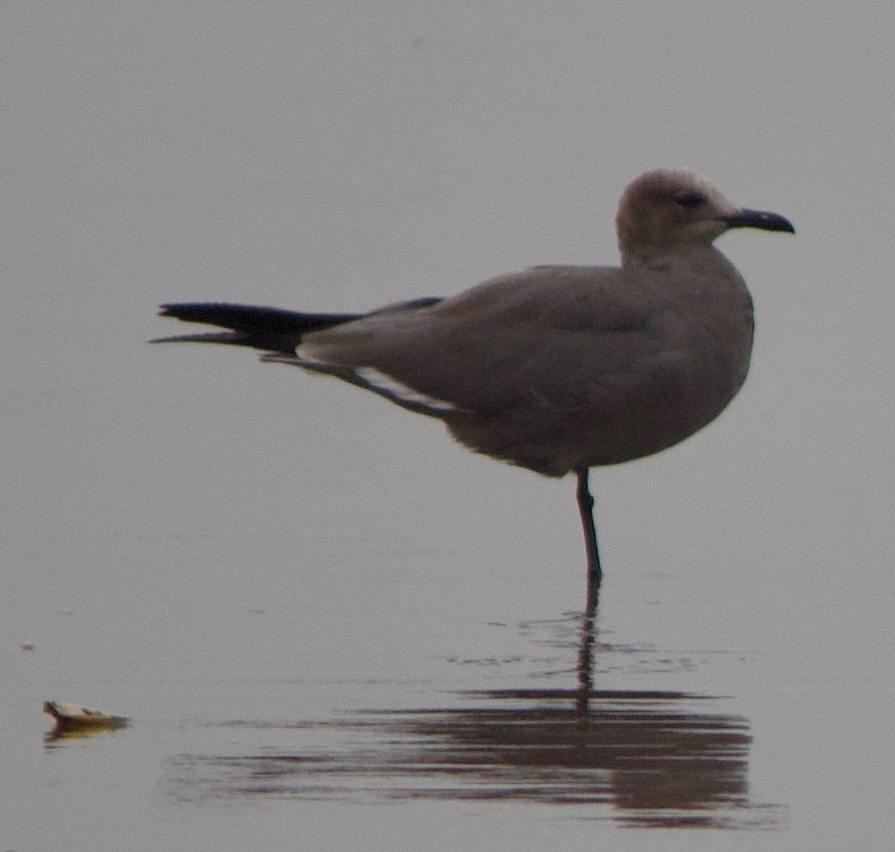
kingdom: Animalia
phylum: Chordata
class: Aves
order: Charadriiformes
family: Laridae
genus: Leucophaeus
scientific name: Leucophaeus modestus
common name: Gray gull
